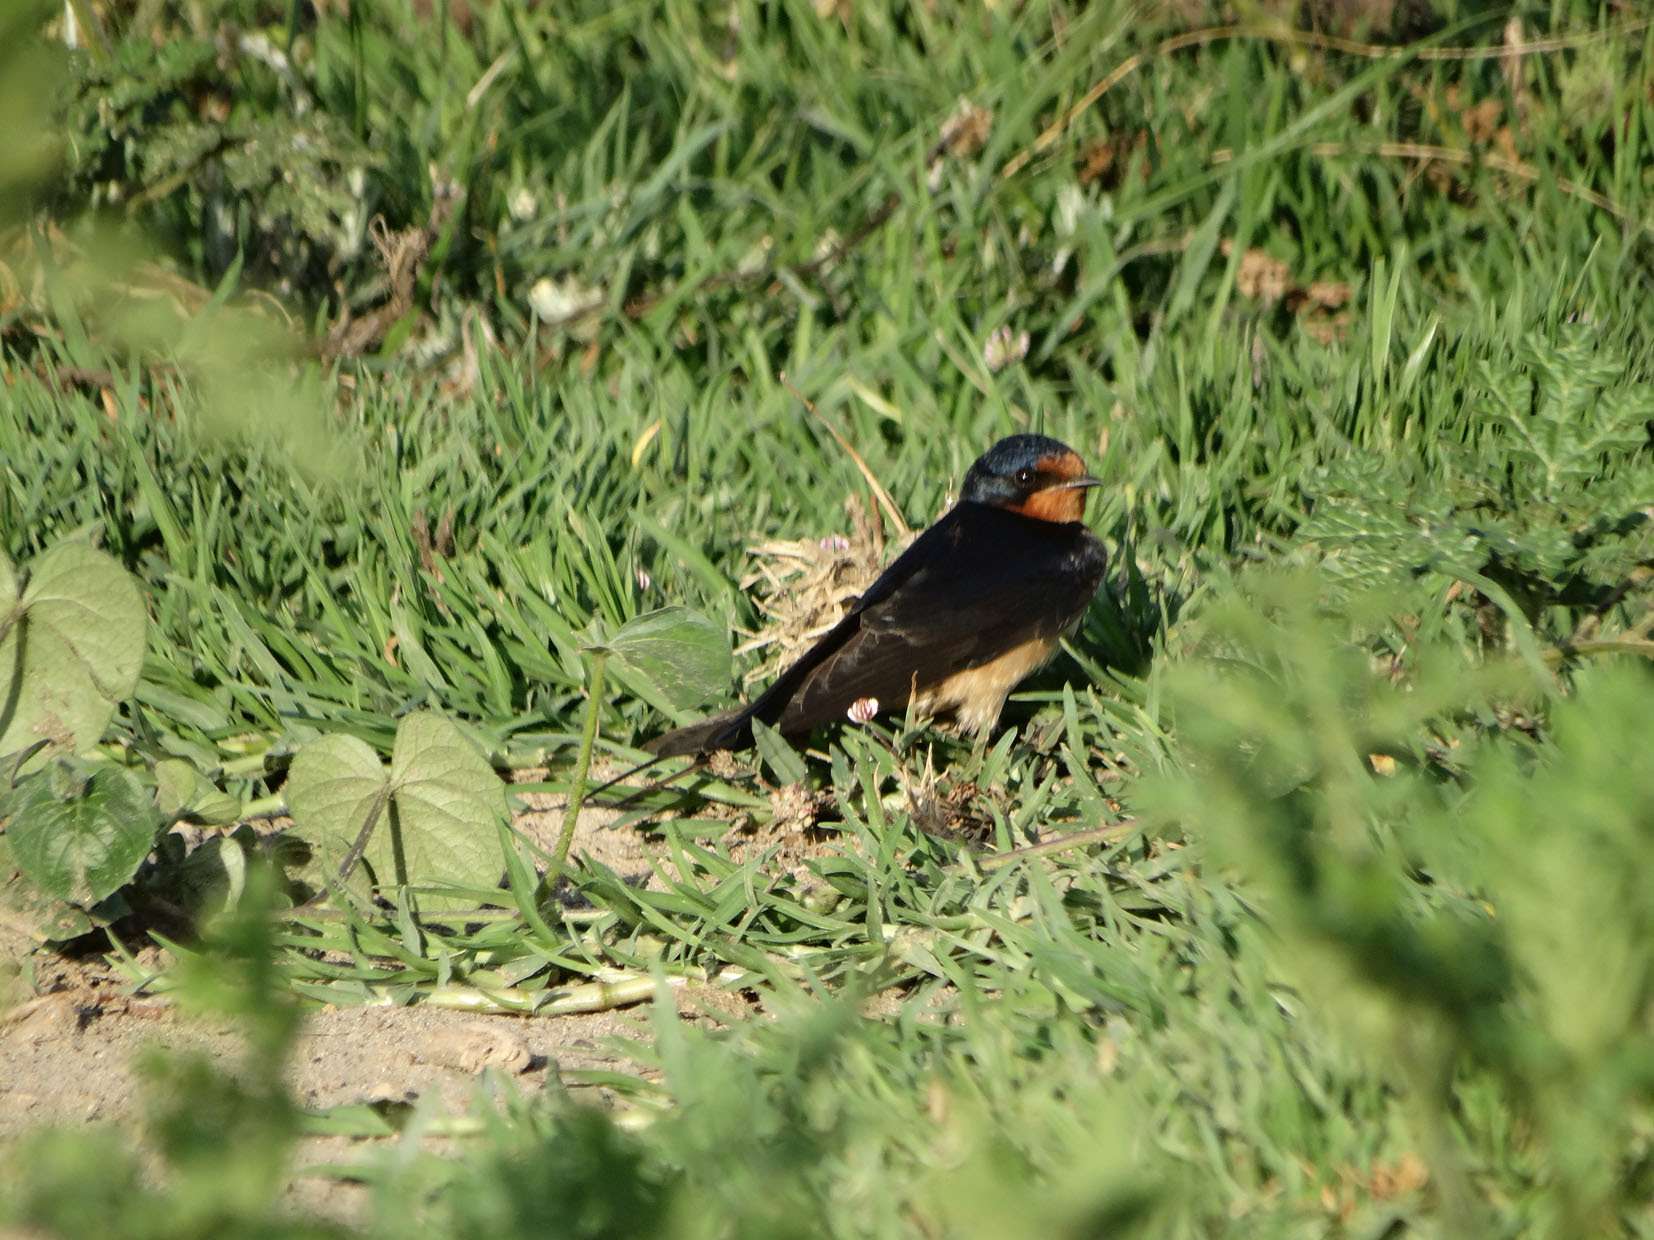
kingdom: Animalia
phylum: Chordata
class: Aves
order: Passeriformes
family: Hirundinidae
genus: Hirundo
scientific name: Hirundo rustica
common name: Barn swallow
